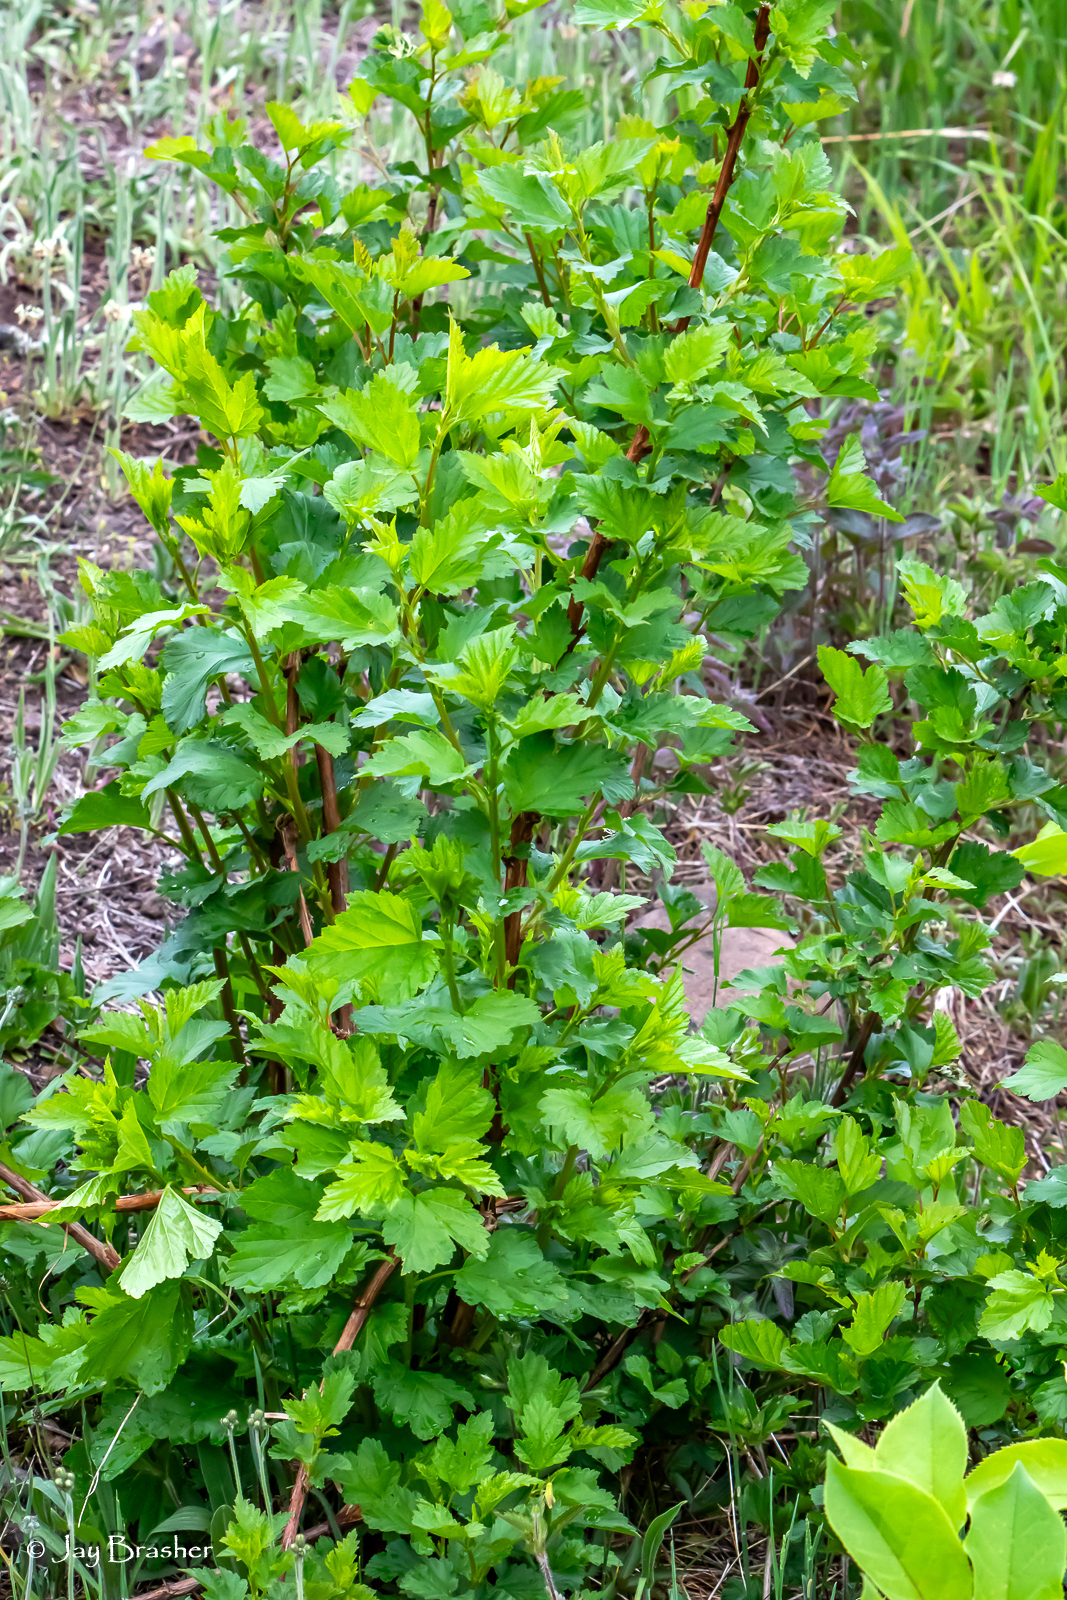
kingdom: Plantae
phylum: Tracheophyta
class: Magnoliopsida
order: Rosales
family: Rosaceae
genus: Physocarpus
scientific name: Physocarpus opulifolius
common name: Ninebark
